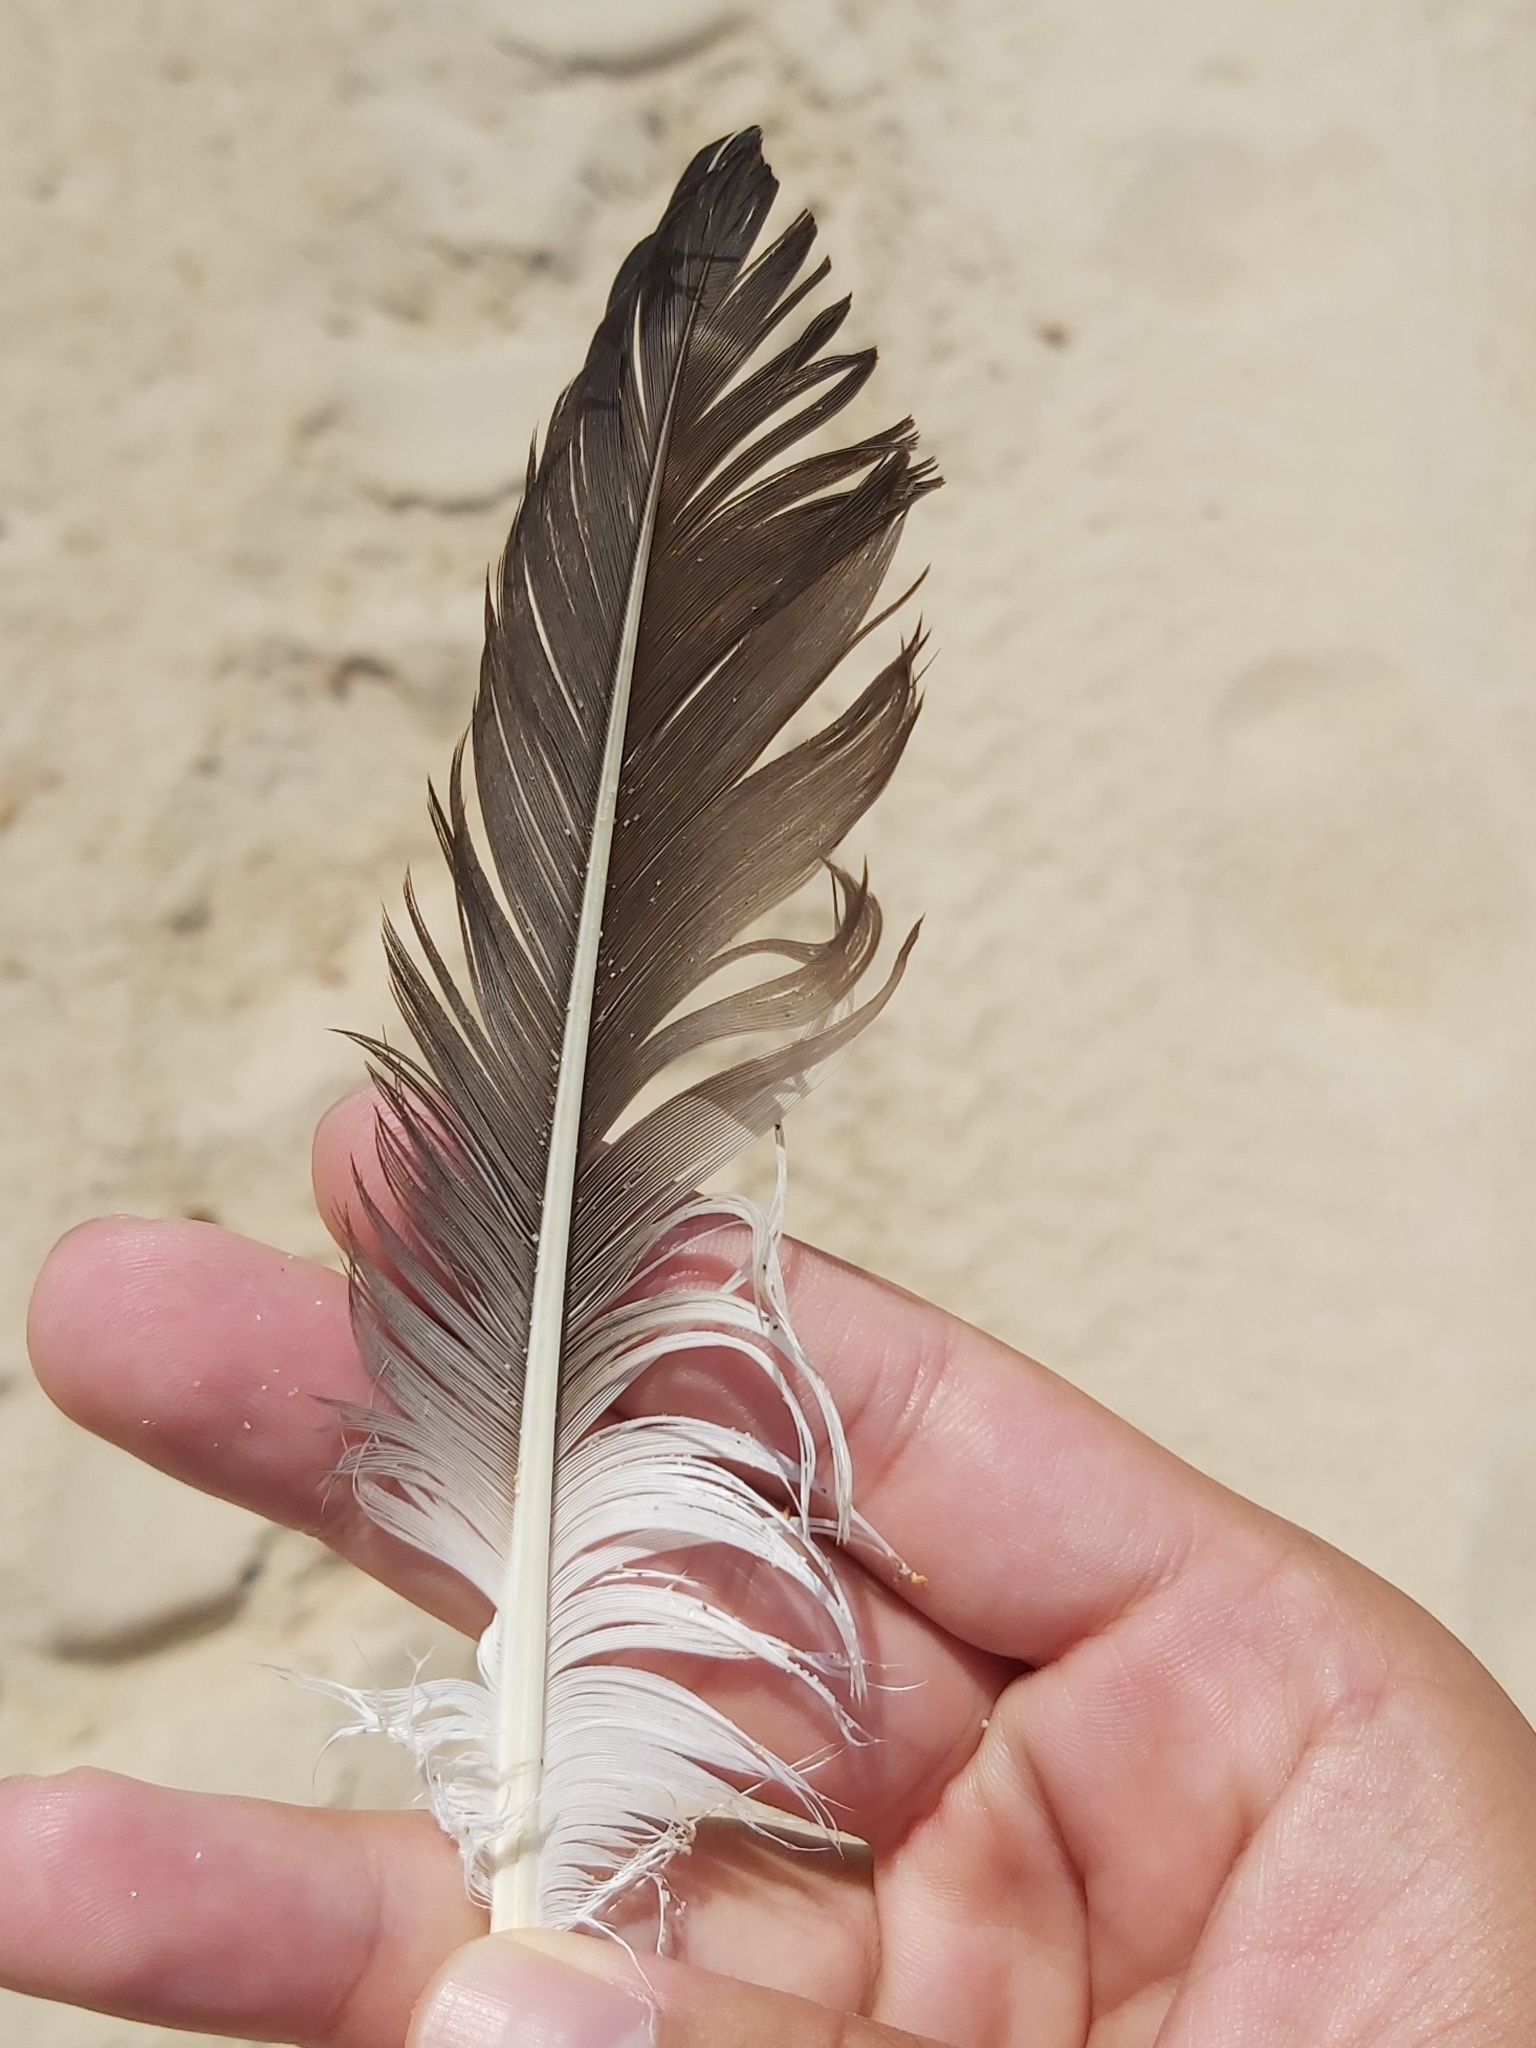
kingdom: Animalia
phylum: Chordata
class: Aves
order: Suliformes
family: Sulidae
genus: Morus
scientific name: Morus serrator
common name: Australasian gannet
